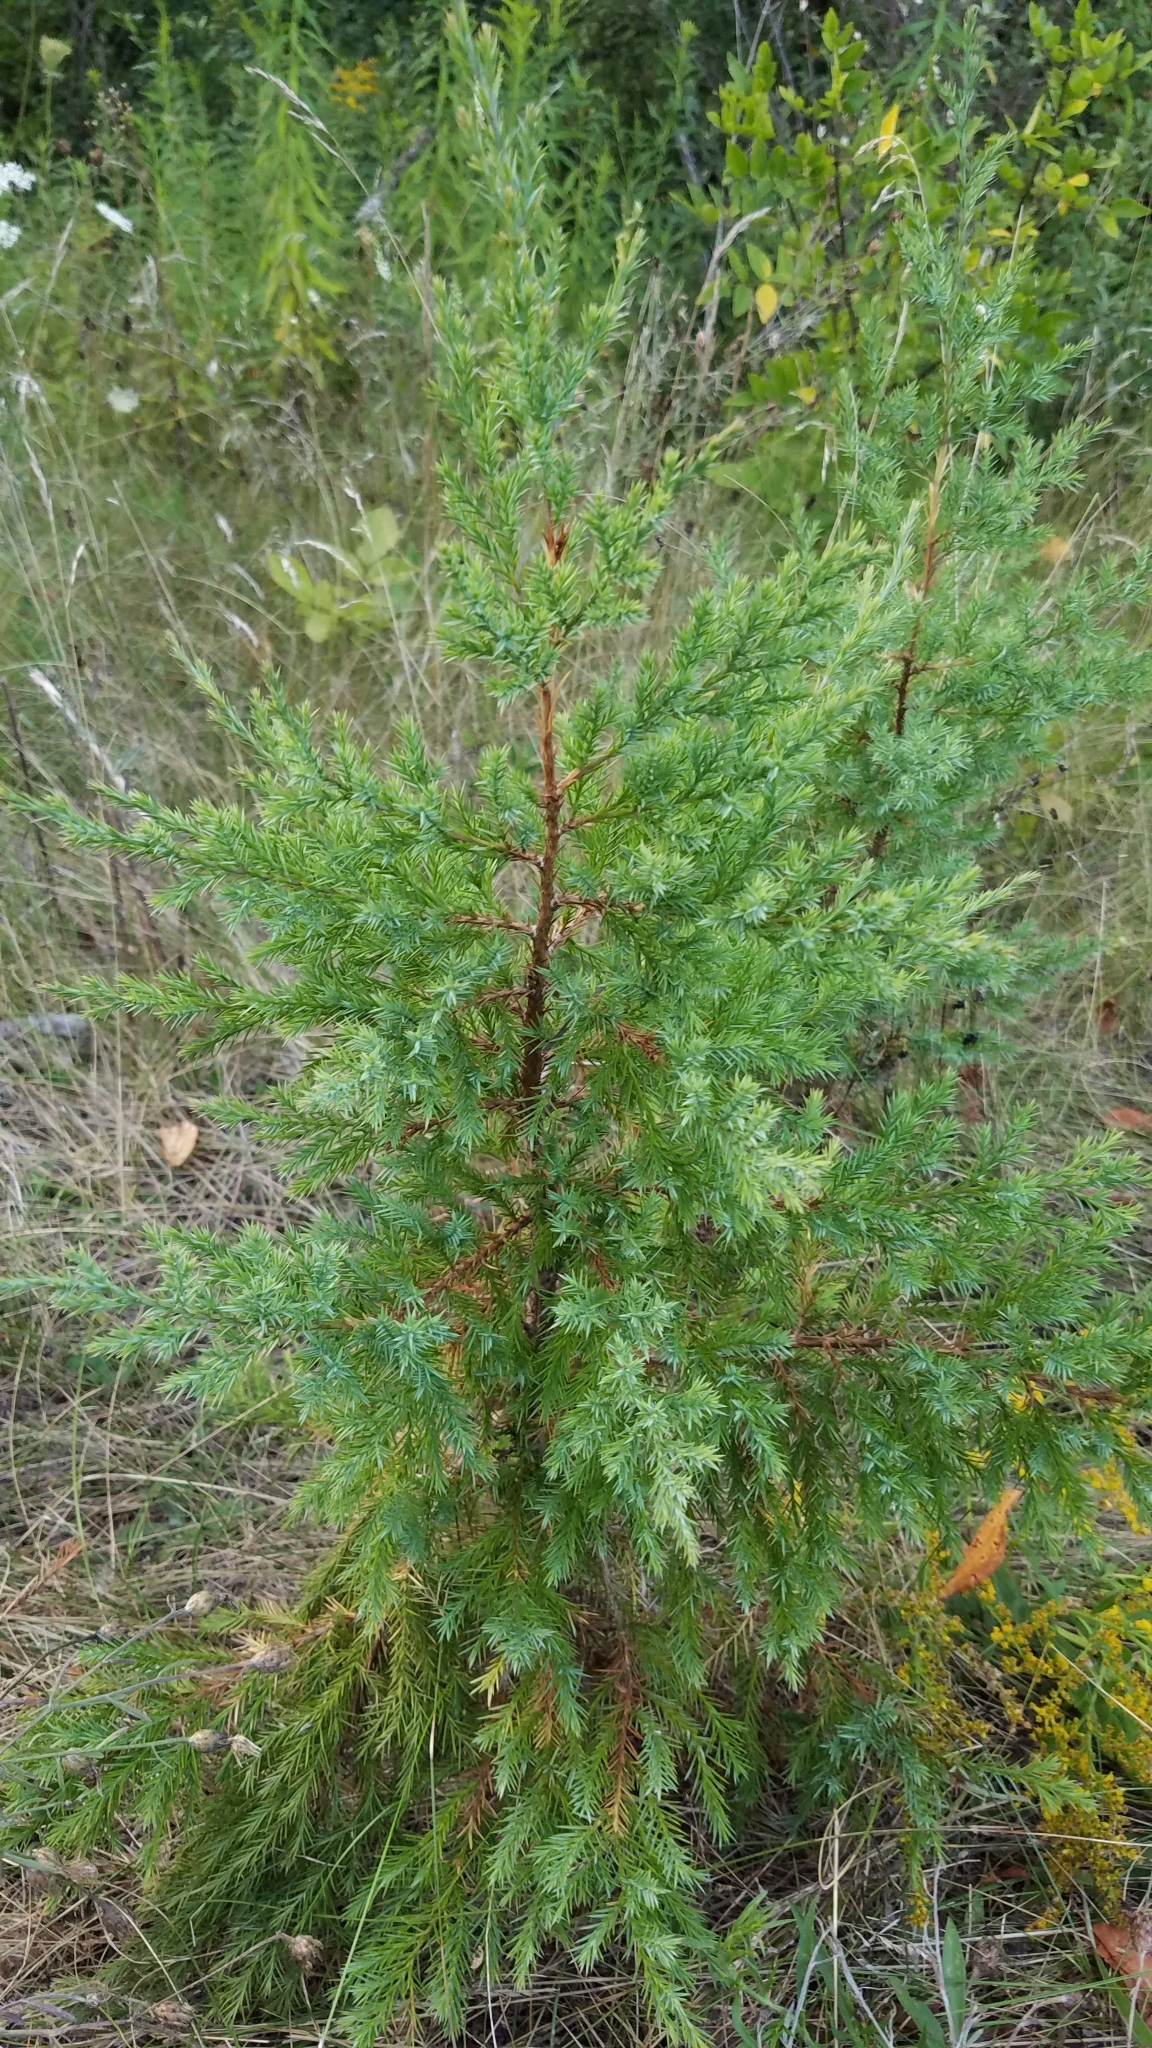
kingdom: Plantae
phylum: Tracheophyta
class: Pinopsida
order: Pinales
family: Cupressaceae
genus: Juniperus
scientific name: Juniperus virginiana
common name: Red juniper
